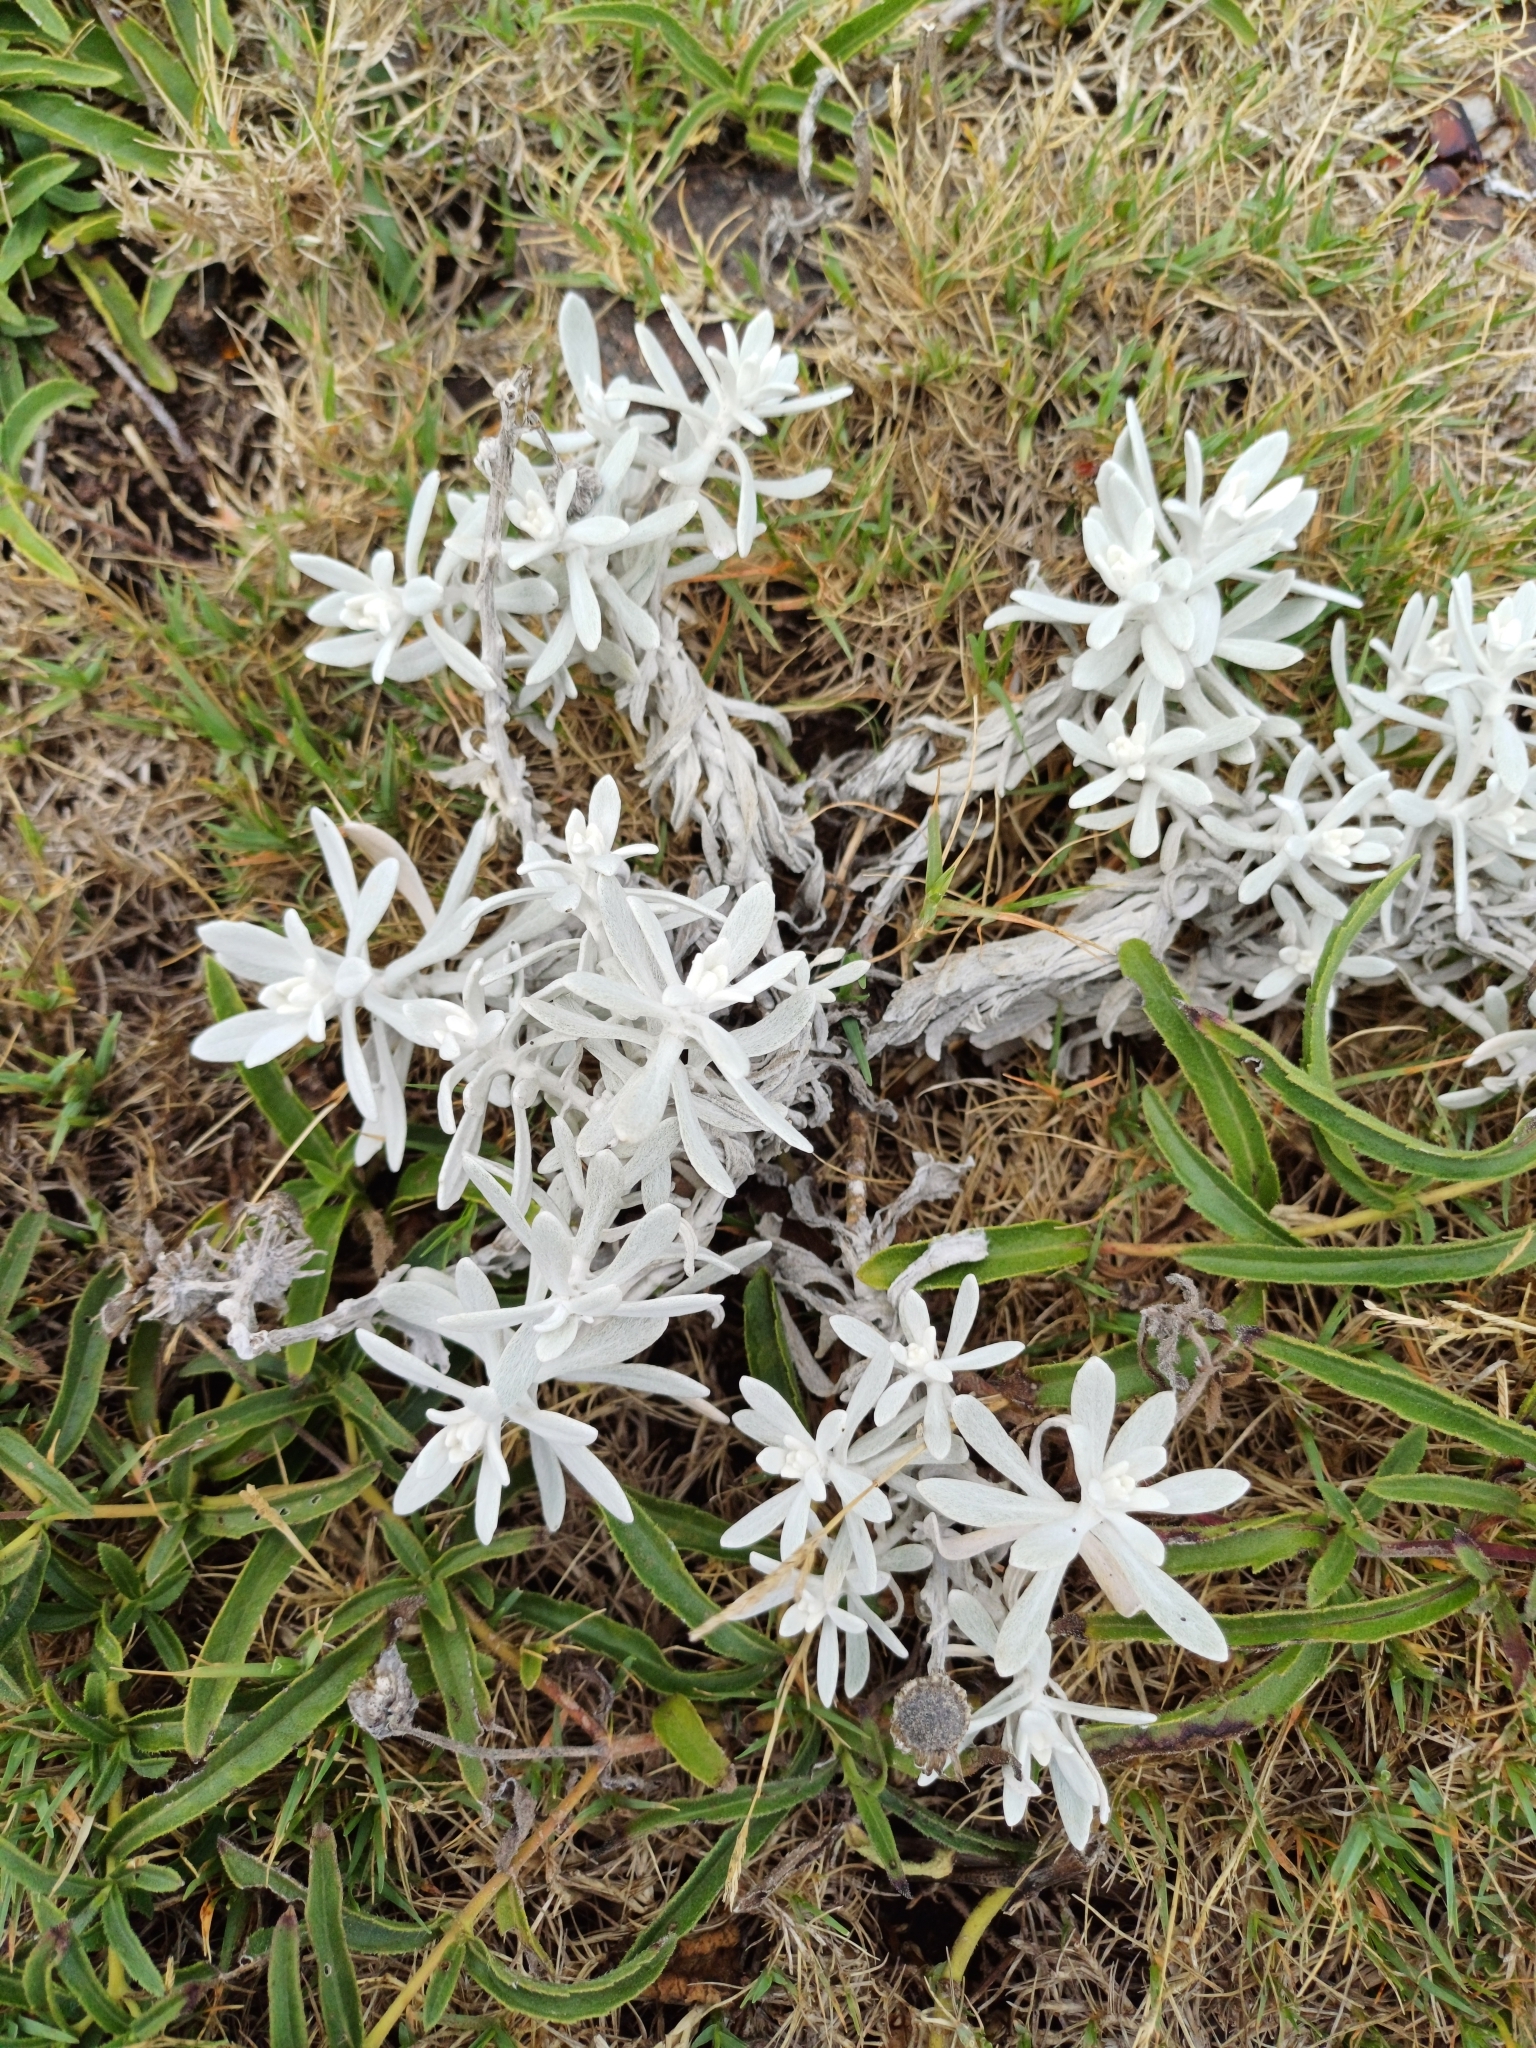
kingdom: Plantae
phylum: Tracheophyta
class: Magnoliopsida
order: Asterales
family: Asteraceae
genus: Senecio
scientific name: Senecio ostenii
